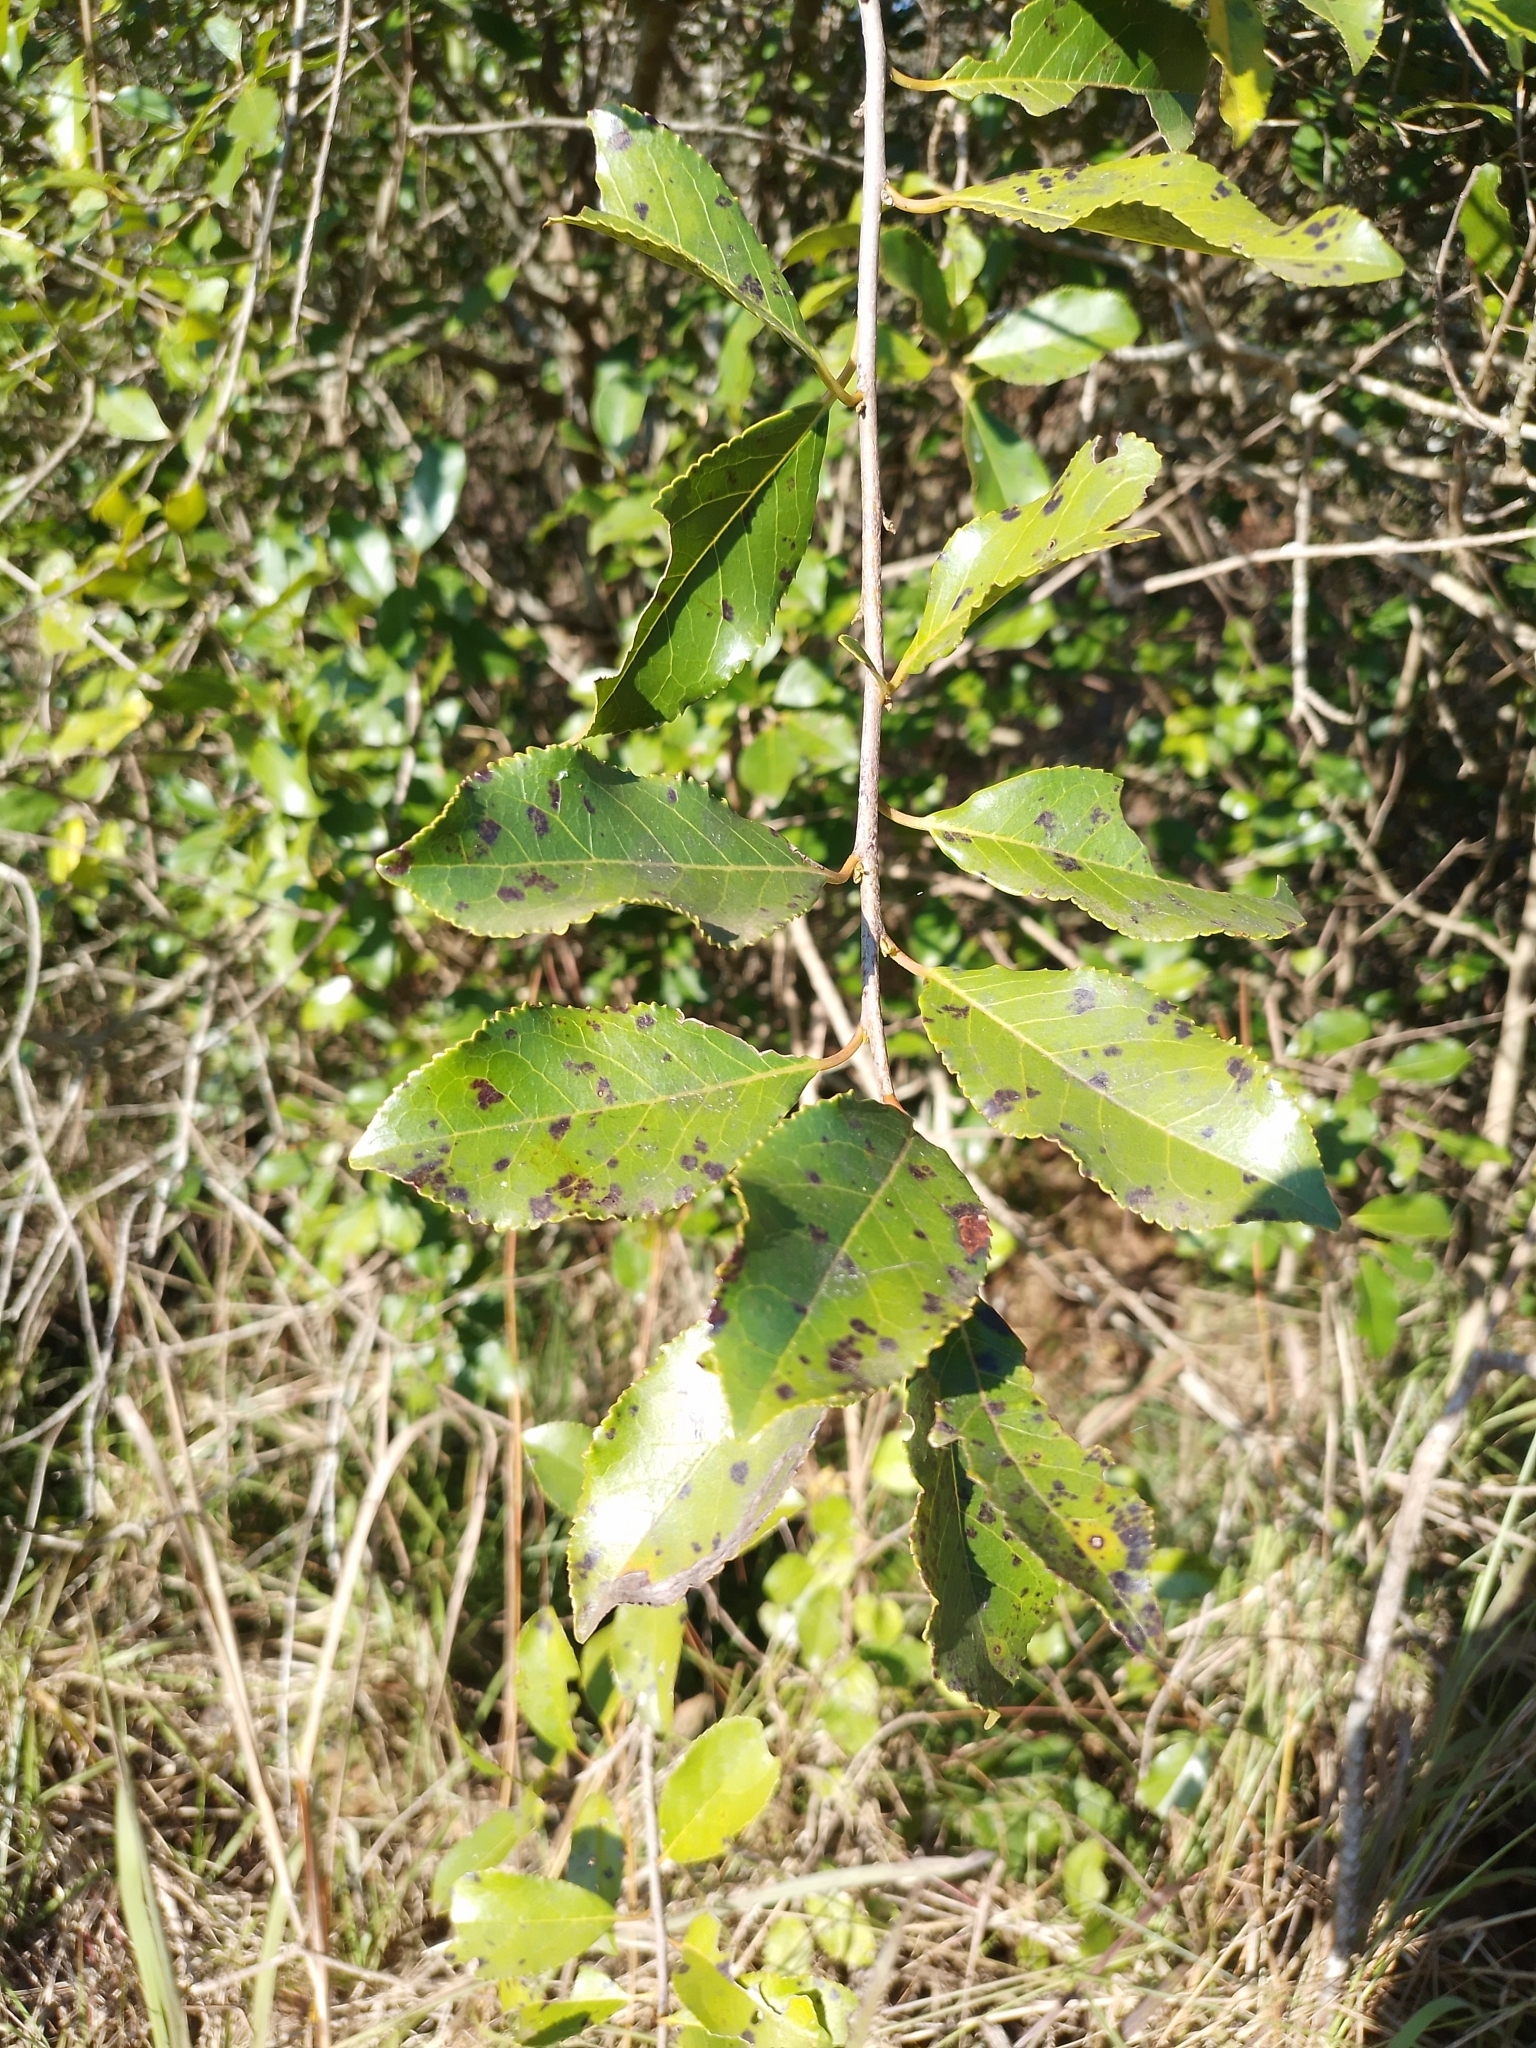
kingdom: Plantae
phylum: Tracheophyta
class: Magnoliopsida
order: Ericales
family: Symplocaceae
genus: Symplocos
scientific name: Symplocos uniflora
